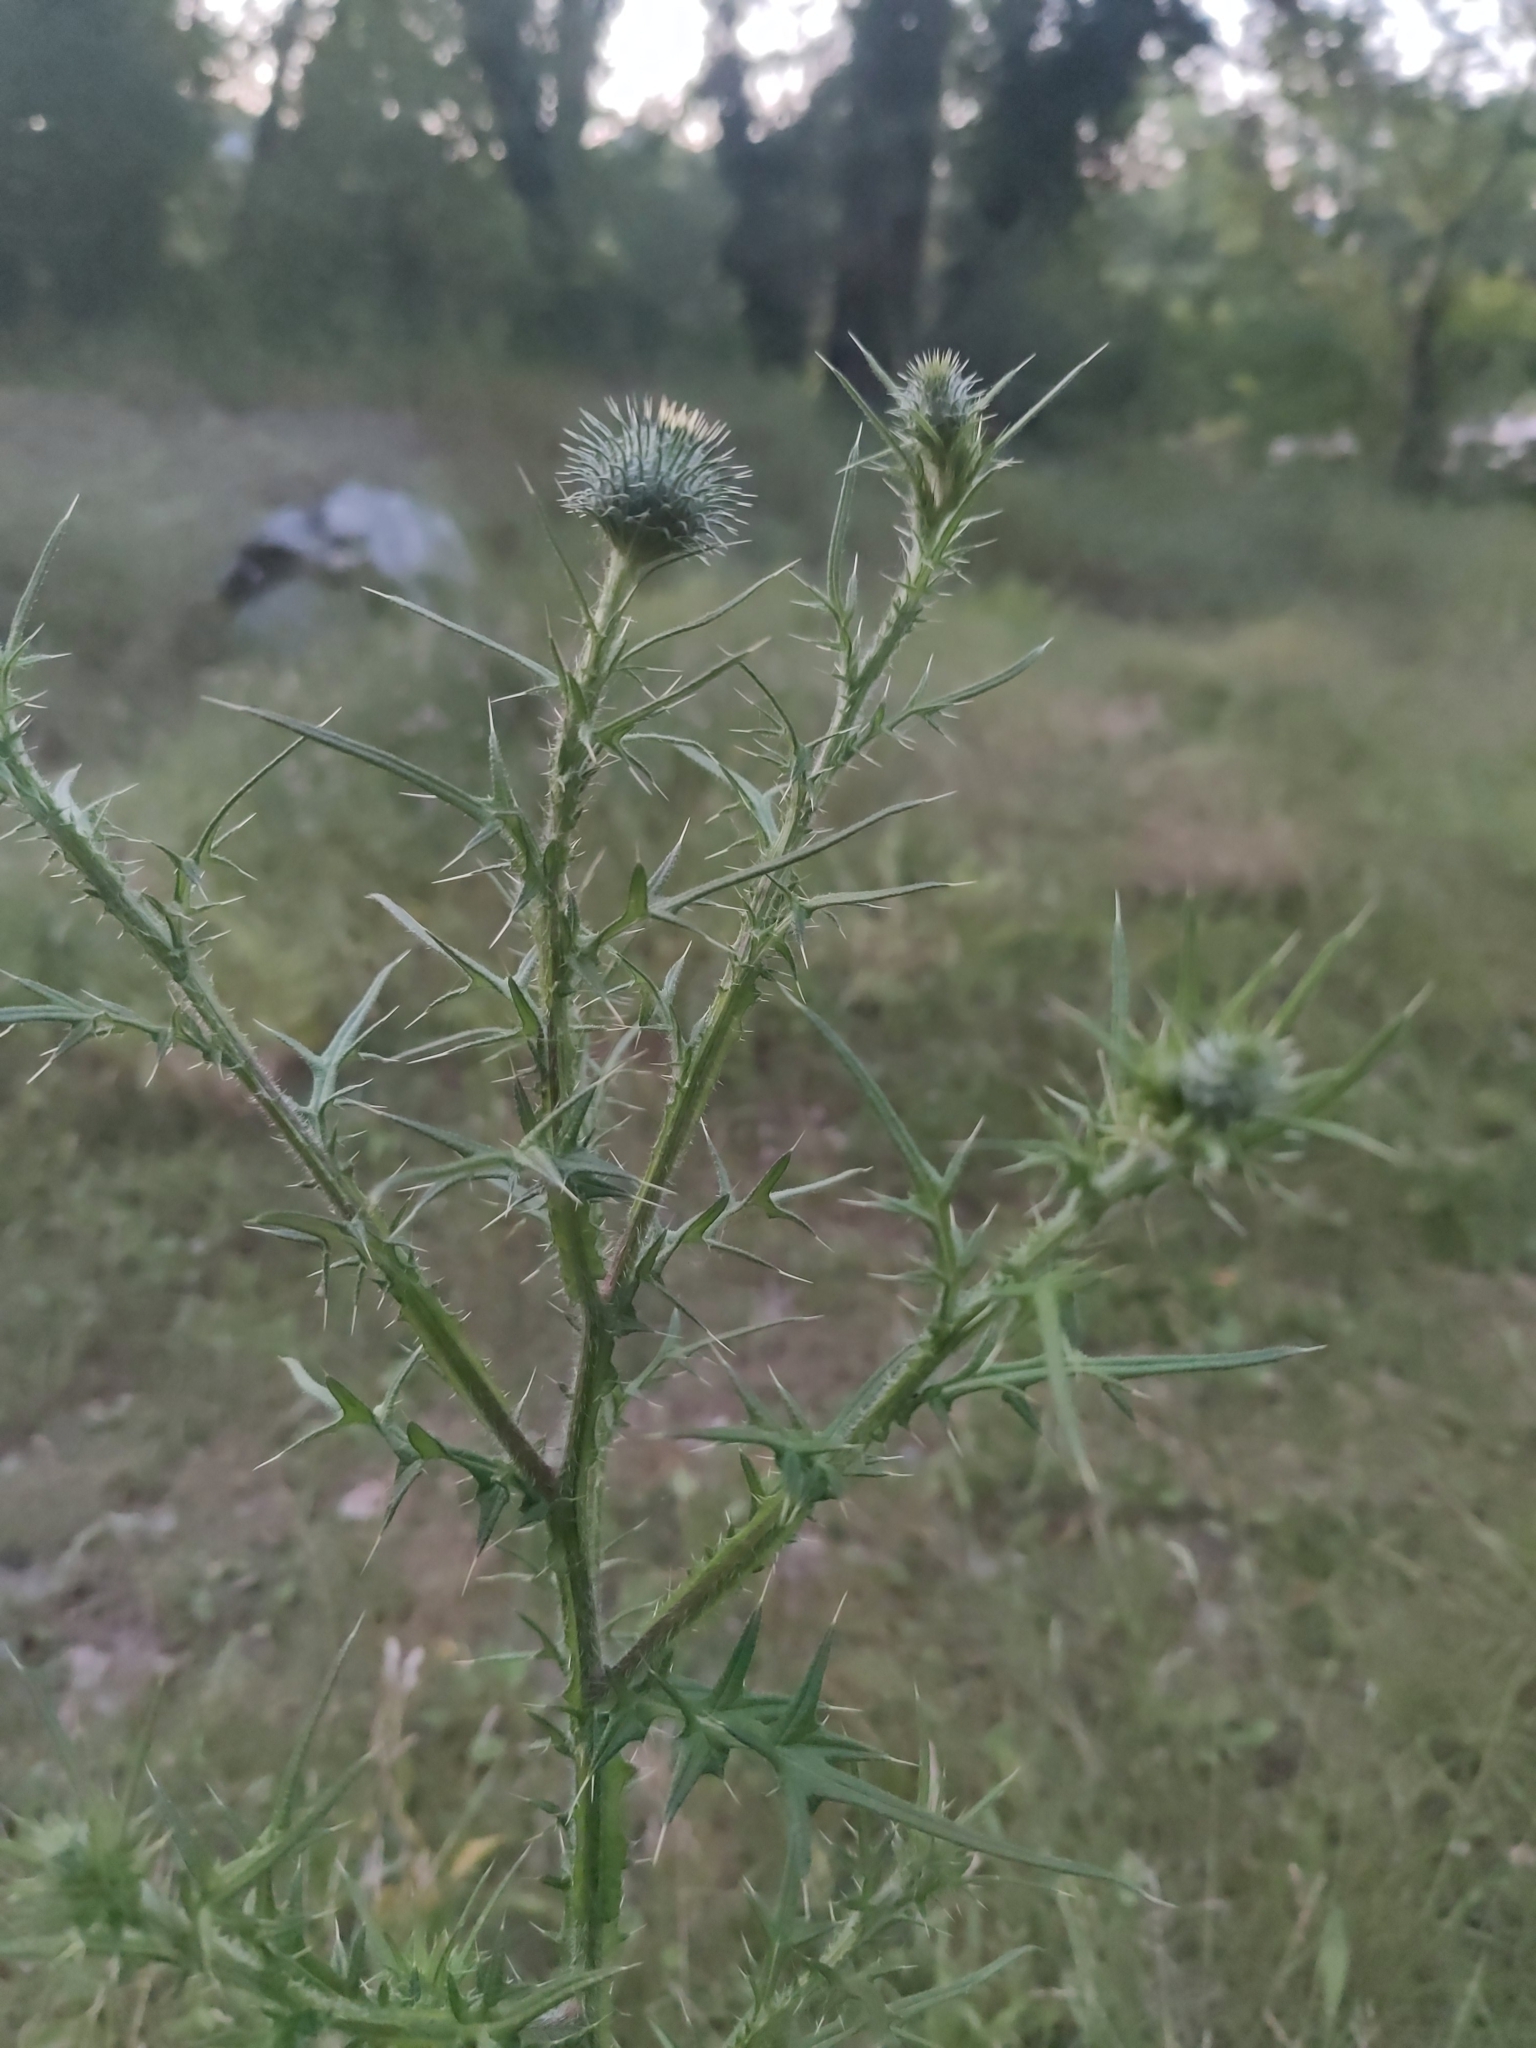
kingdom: Plantae
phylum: Tracheophyta
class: Magnoliopsida
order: Asterales
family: Asteraceae
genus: Cirsium
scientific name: Cirsium vulgare
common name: Bull thistle
